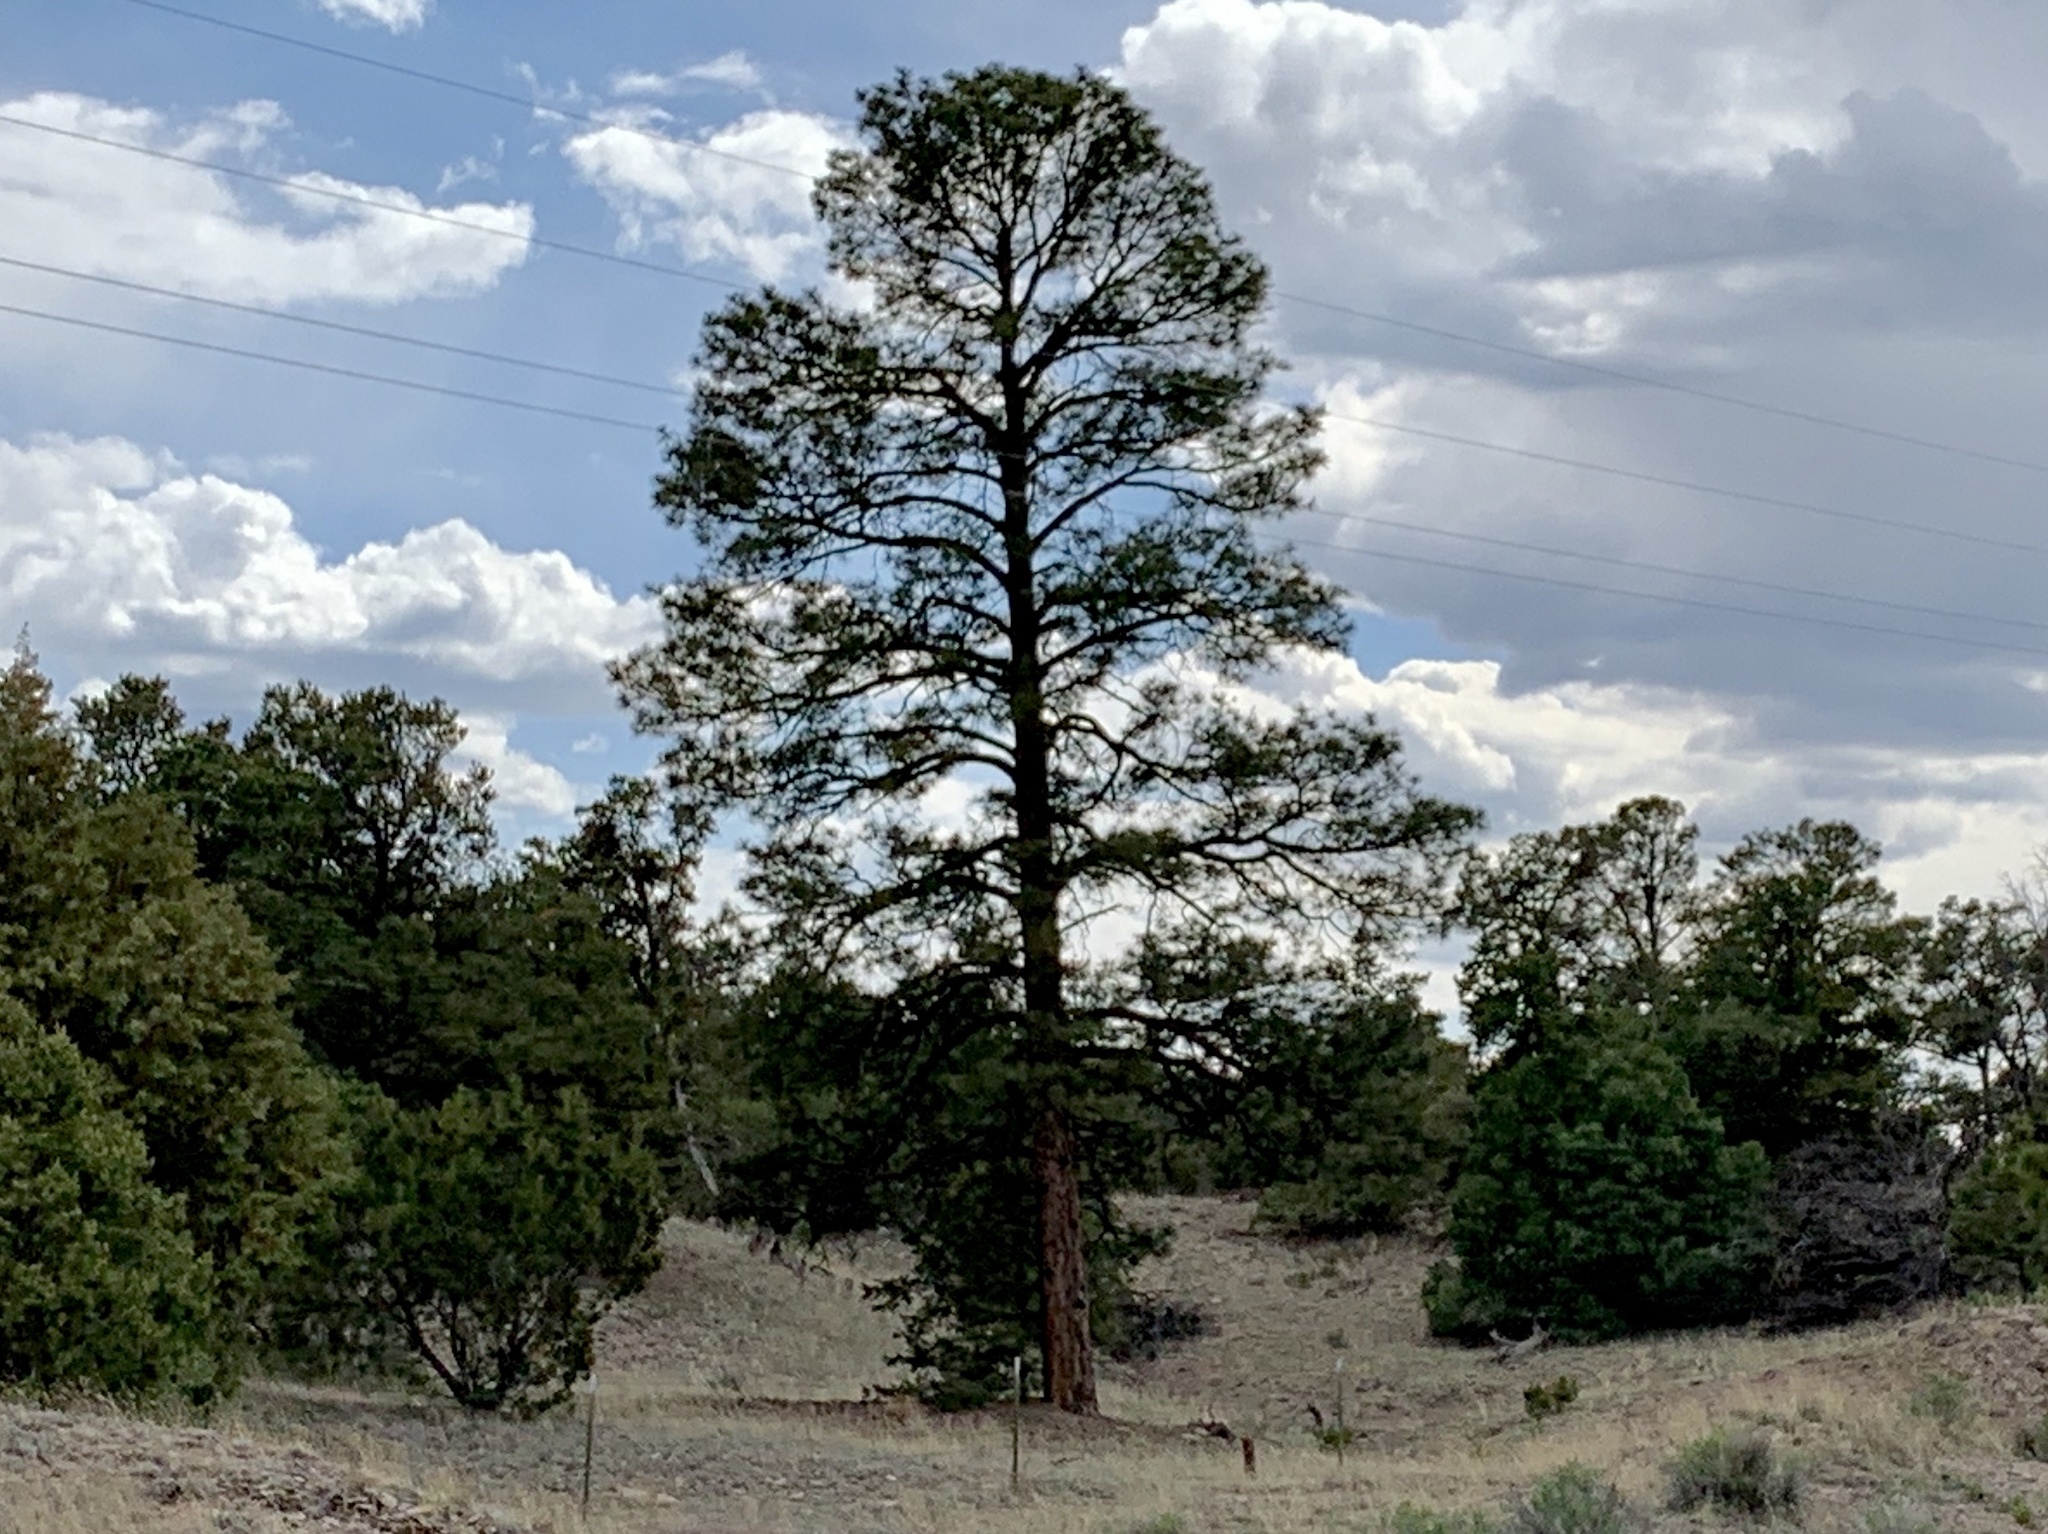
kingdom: Plantae
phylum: Tracheophyta
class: Pinopsida
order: Pinales
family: Pinaceae
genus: Pinus
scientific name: Pinus ponderosa
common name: Western yellow-pine
